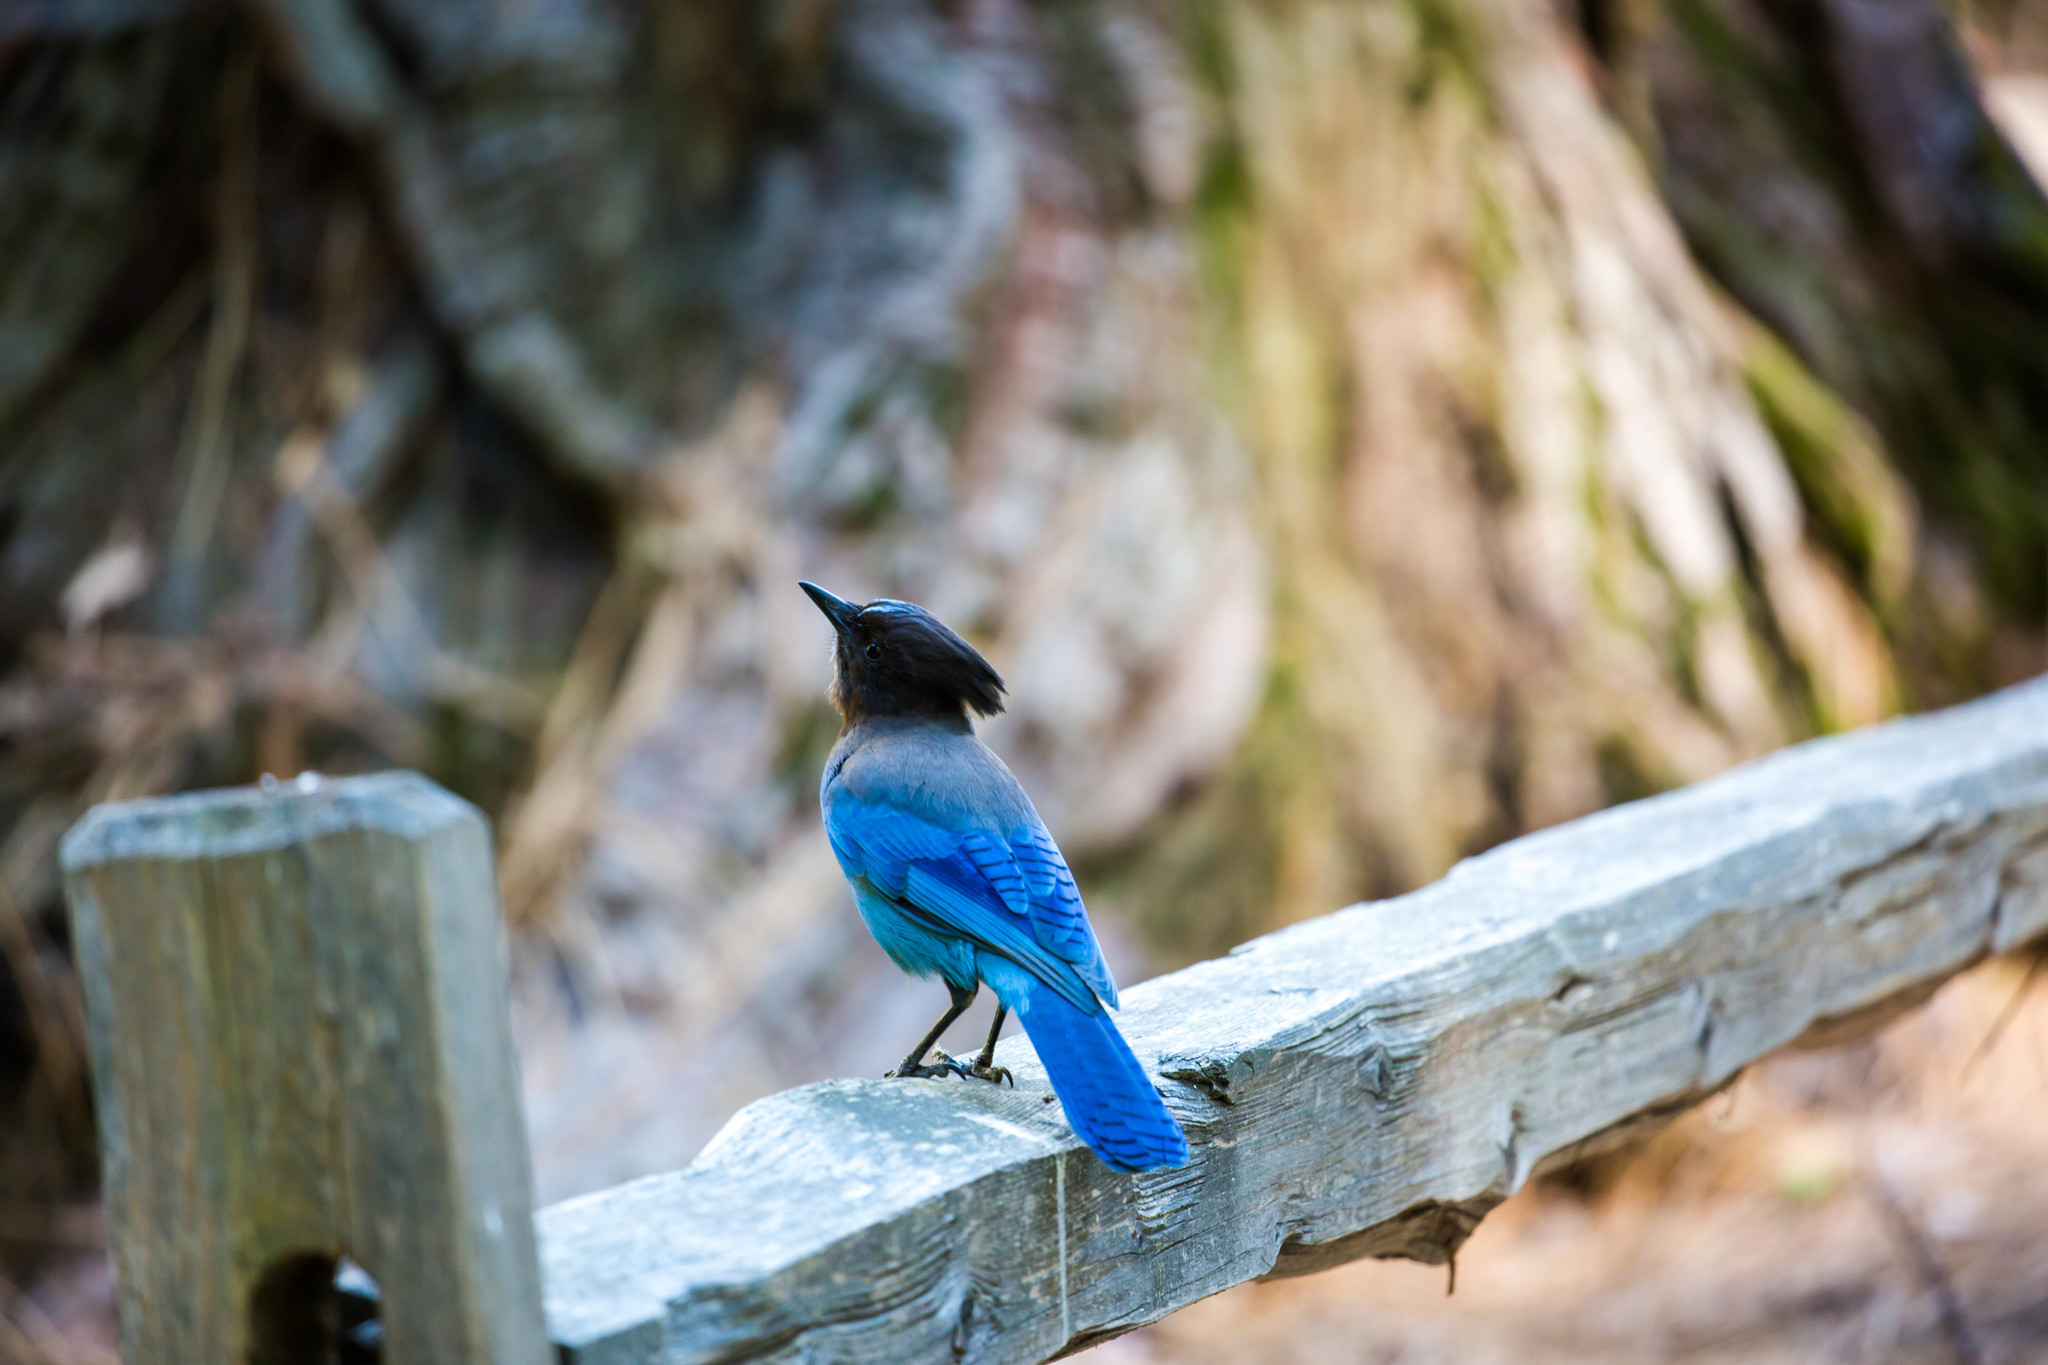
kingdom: Animalia
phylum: Chordata
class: Aves
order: Passeriformes
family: Corvidae
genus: Cyanocitta
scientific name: Cyanocitta stelleri
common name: Steller's jay
